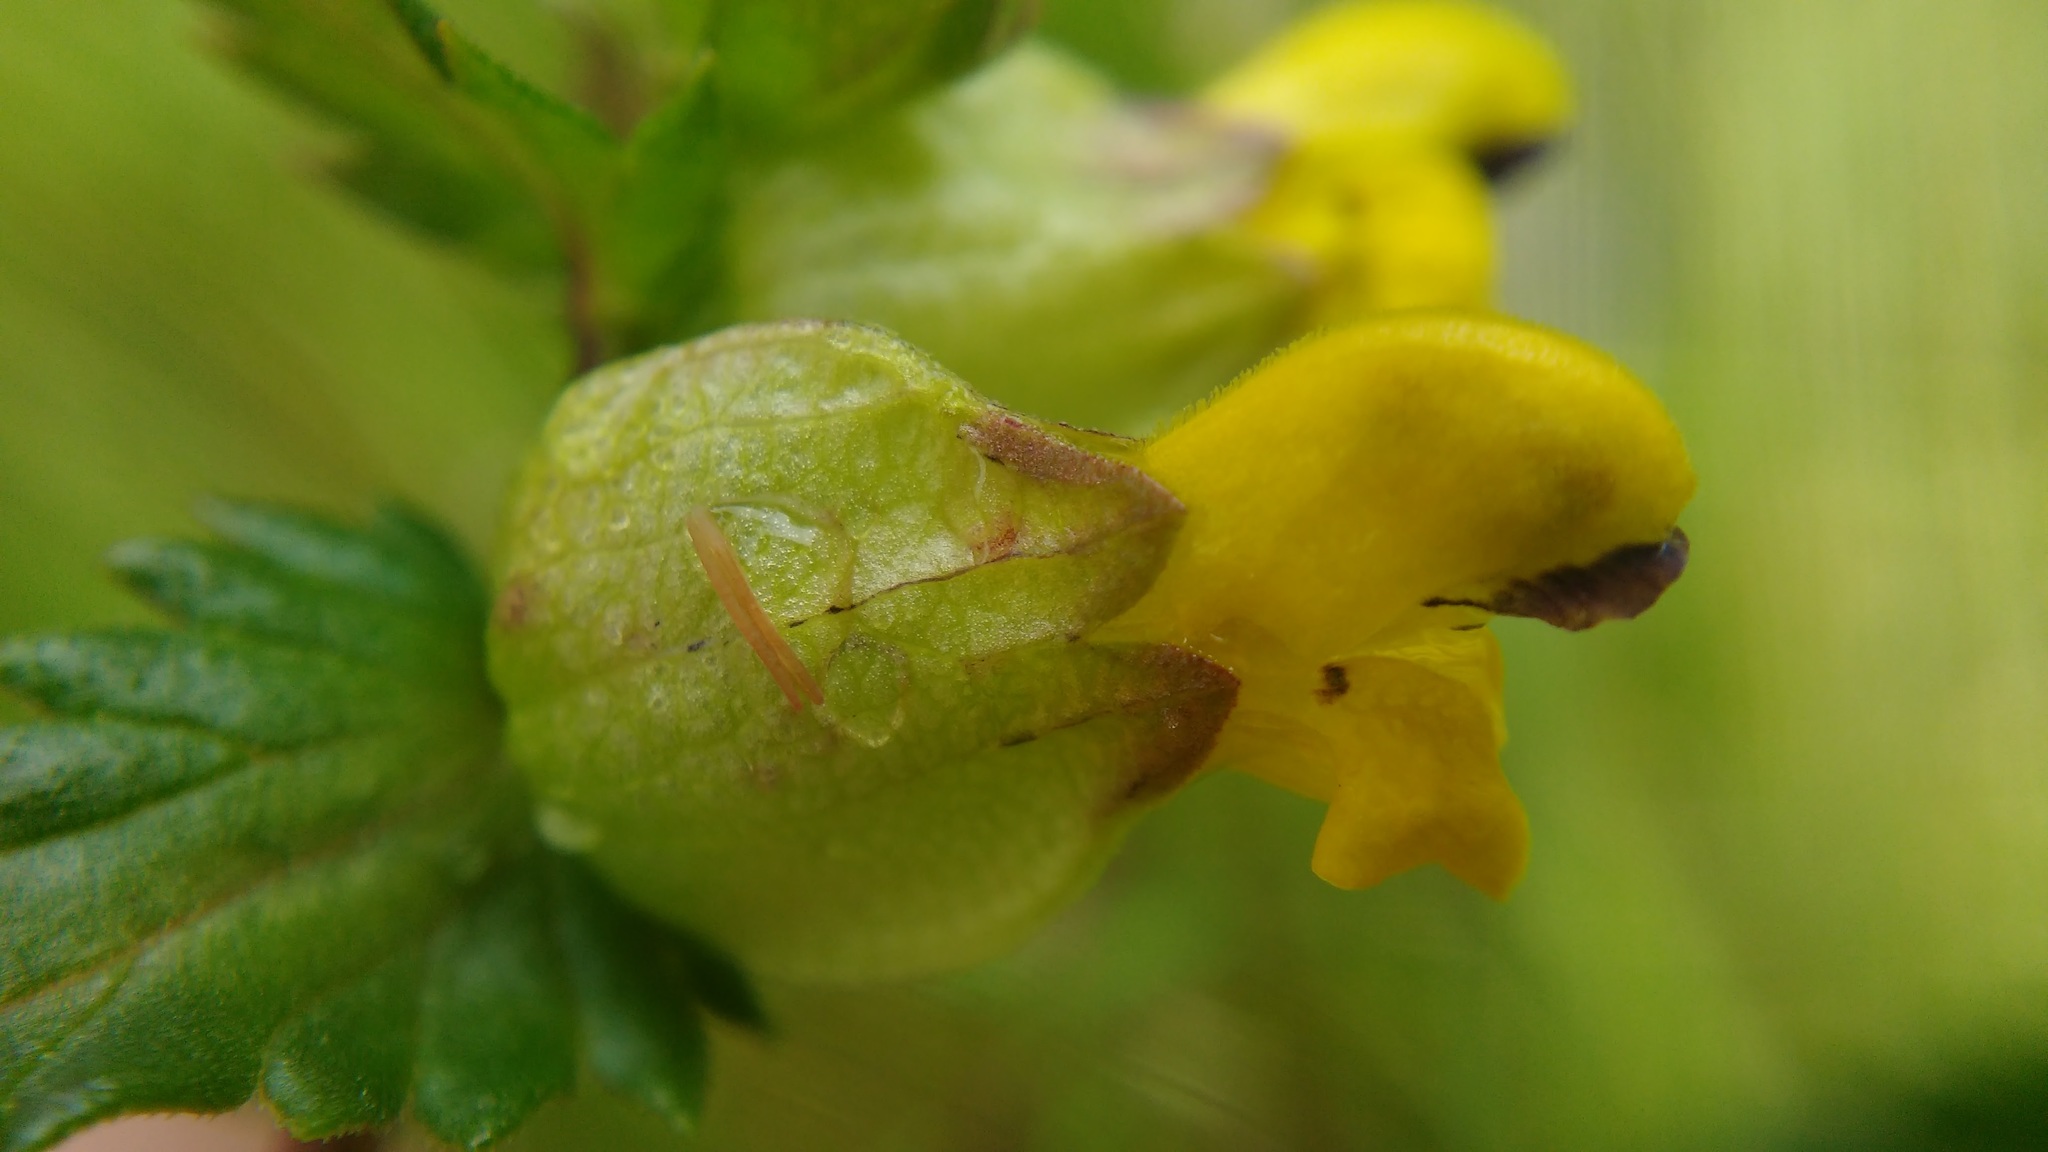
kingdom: Plantae
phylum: Tracheophyta
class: Magnoliopsida
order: Lamiales
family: Orobanchaceae
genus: Rhinanthus
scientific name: Rhinanthus minor
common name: Yellow-rattle
